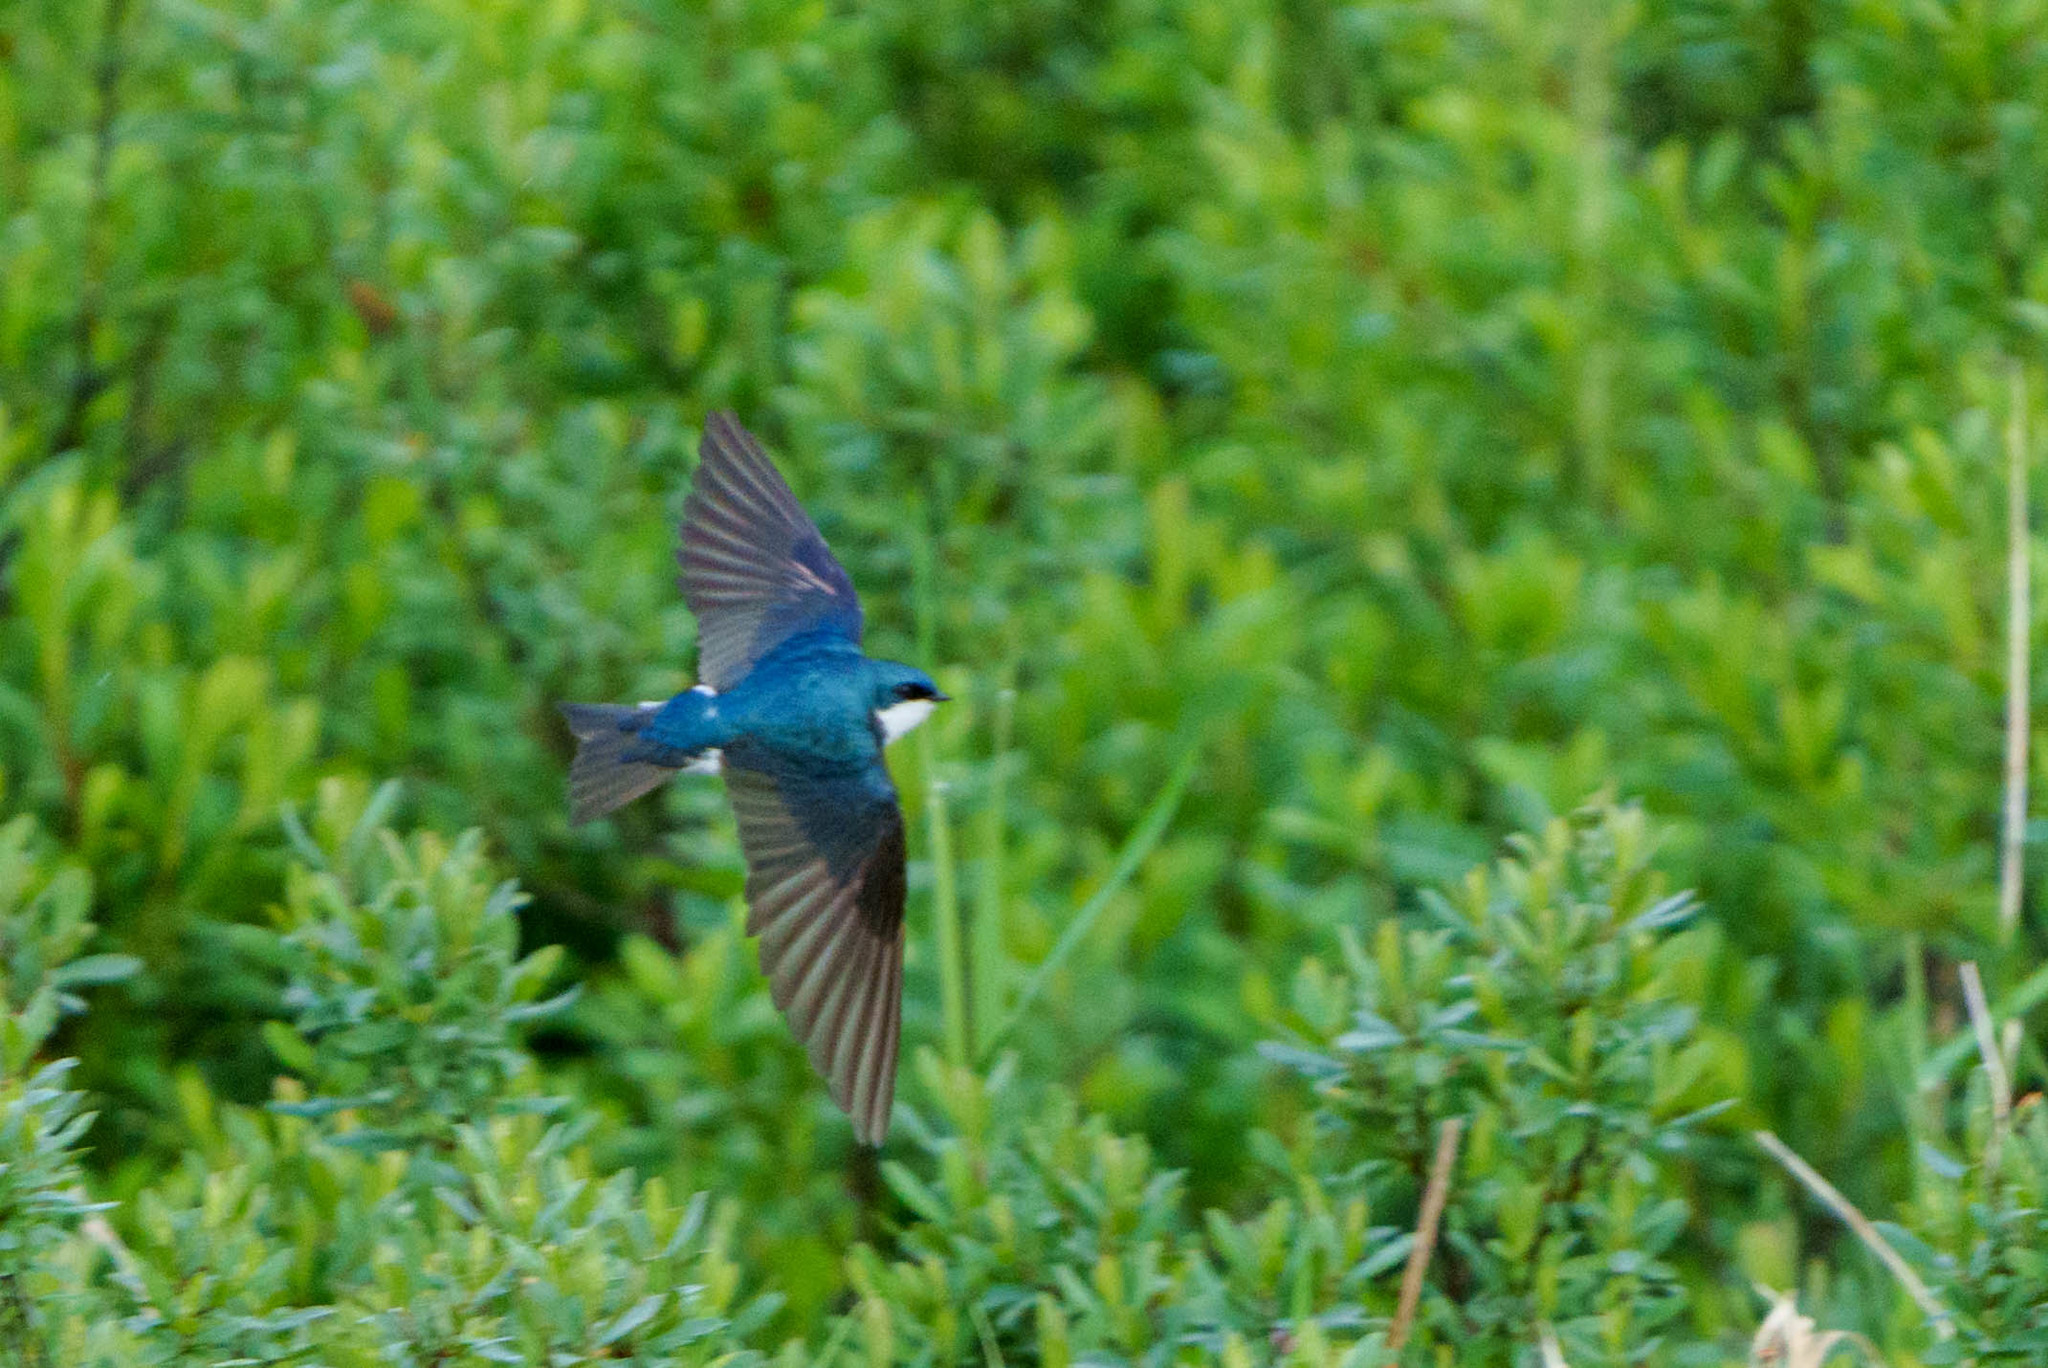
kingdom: Animalia
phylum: Chordata
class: Aves
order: Passeriformes
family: Hirundinidae
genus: Tachycineta
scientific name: Tachycineta bicolor
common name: Tree swallow
